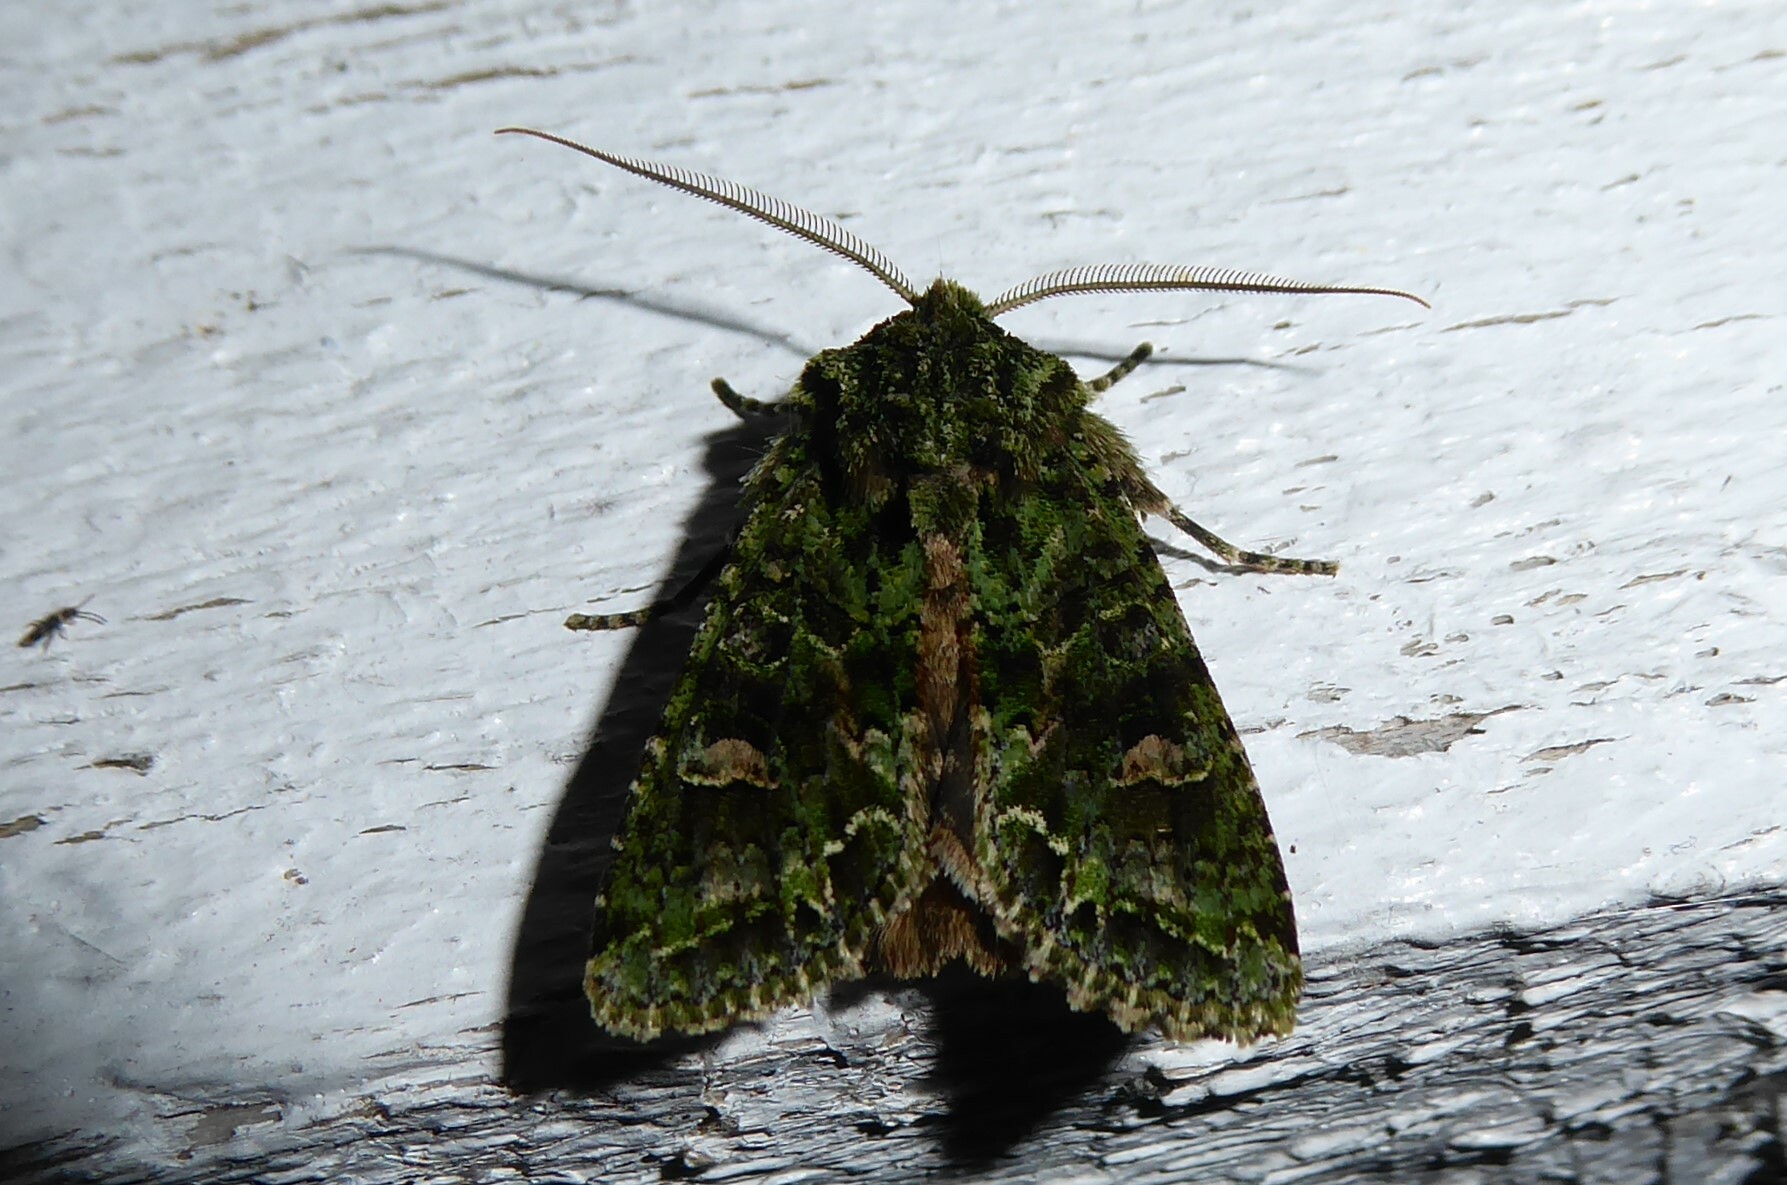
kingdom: Animalia
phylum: Arthropoda
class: Insecta
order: Lepidoptera
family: Noctuidae
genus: Ichneutica
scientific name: Ichneutica
